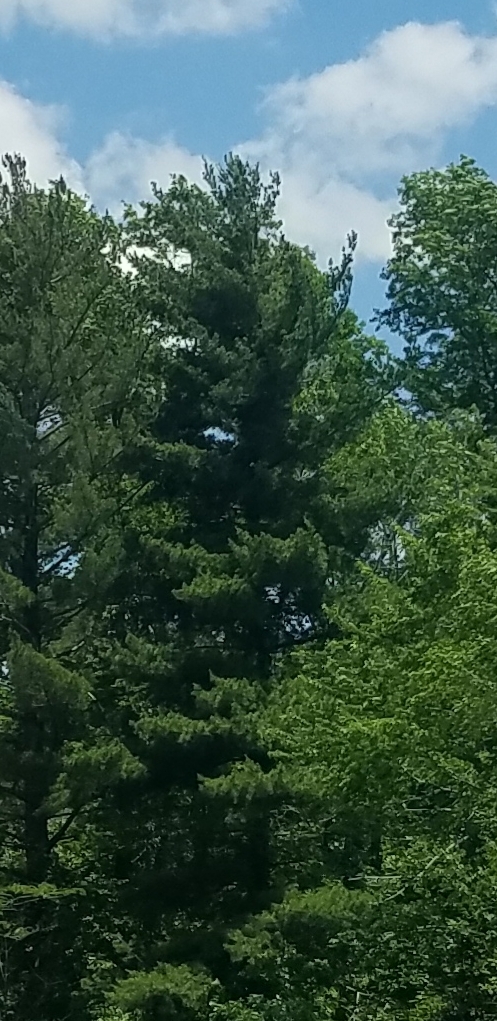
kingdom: Plantae
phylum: Tracheophyta
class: Pinopsida
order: Pinales
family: Pinaceae
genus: Pinus
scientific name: Pinus strobus
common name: Weymouth pine
